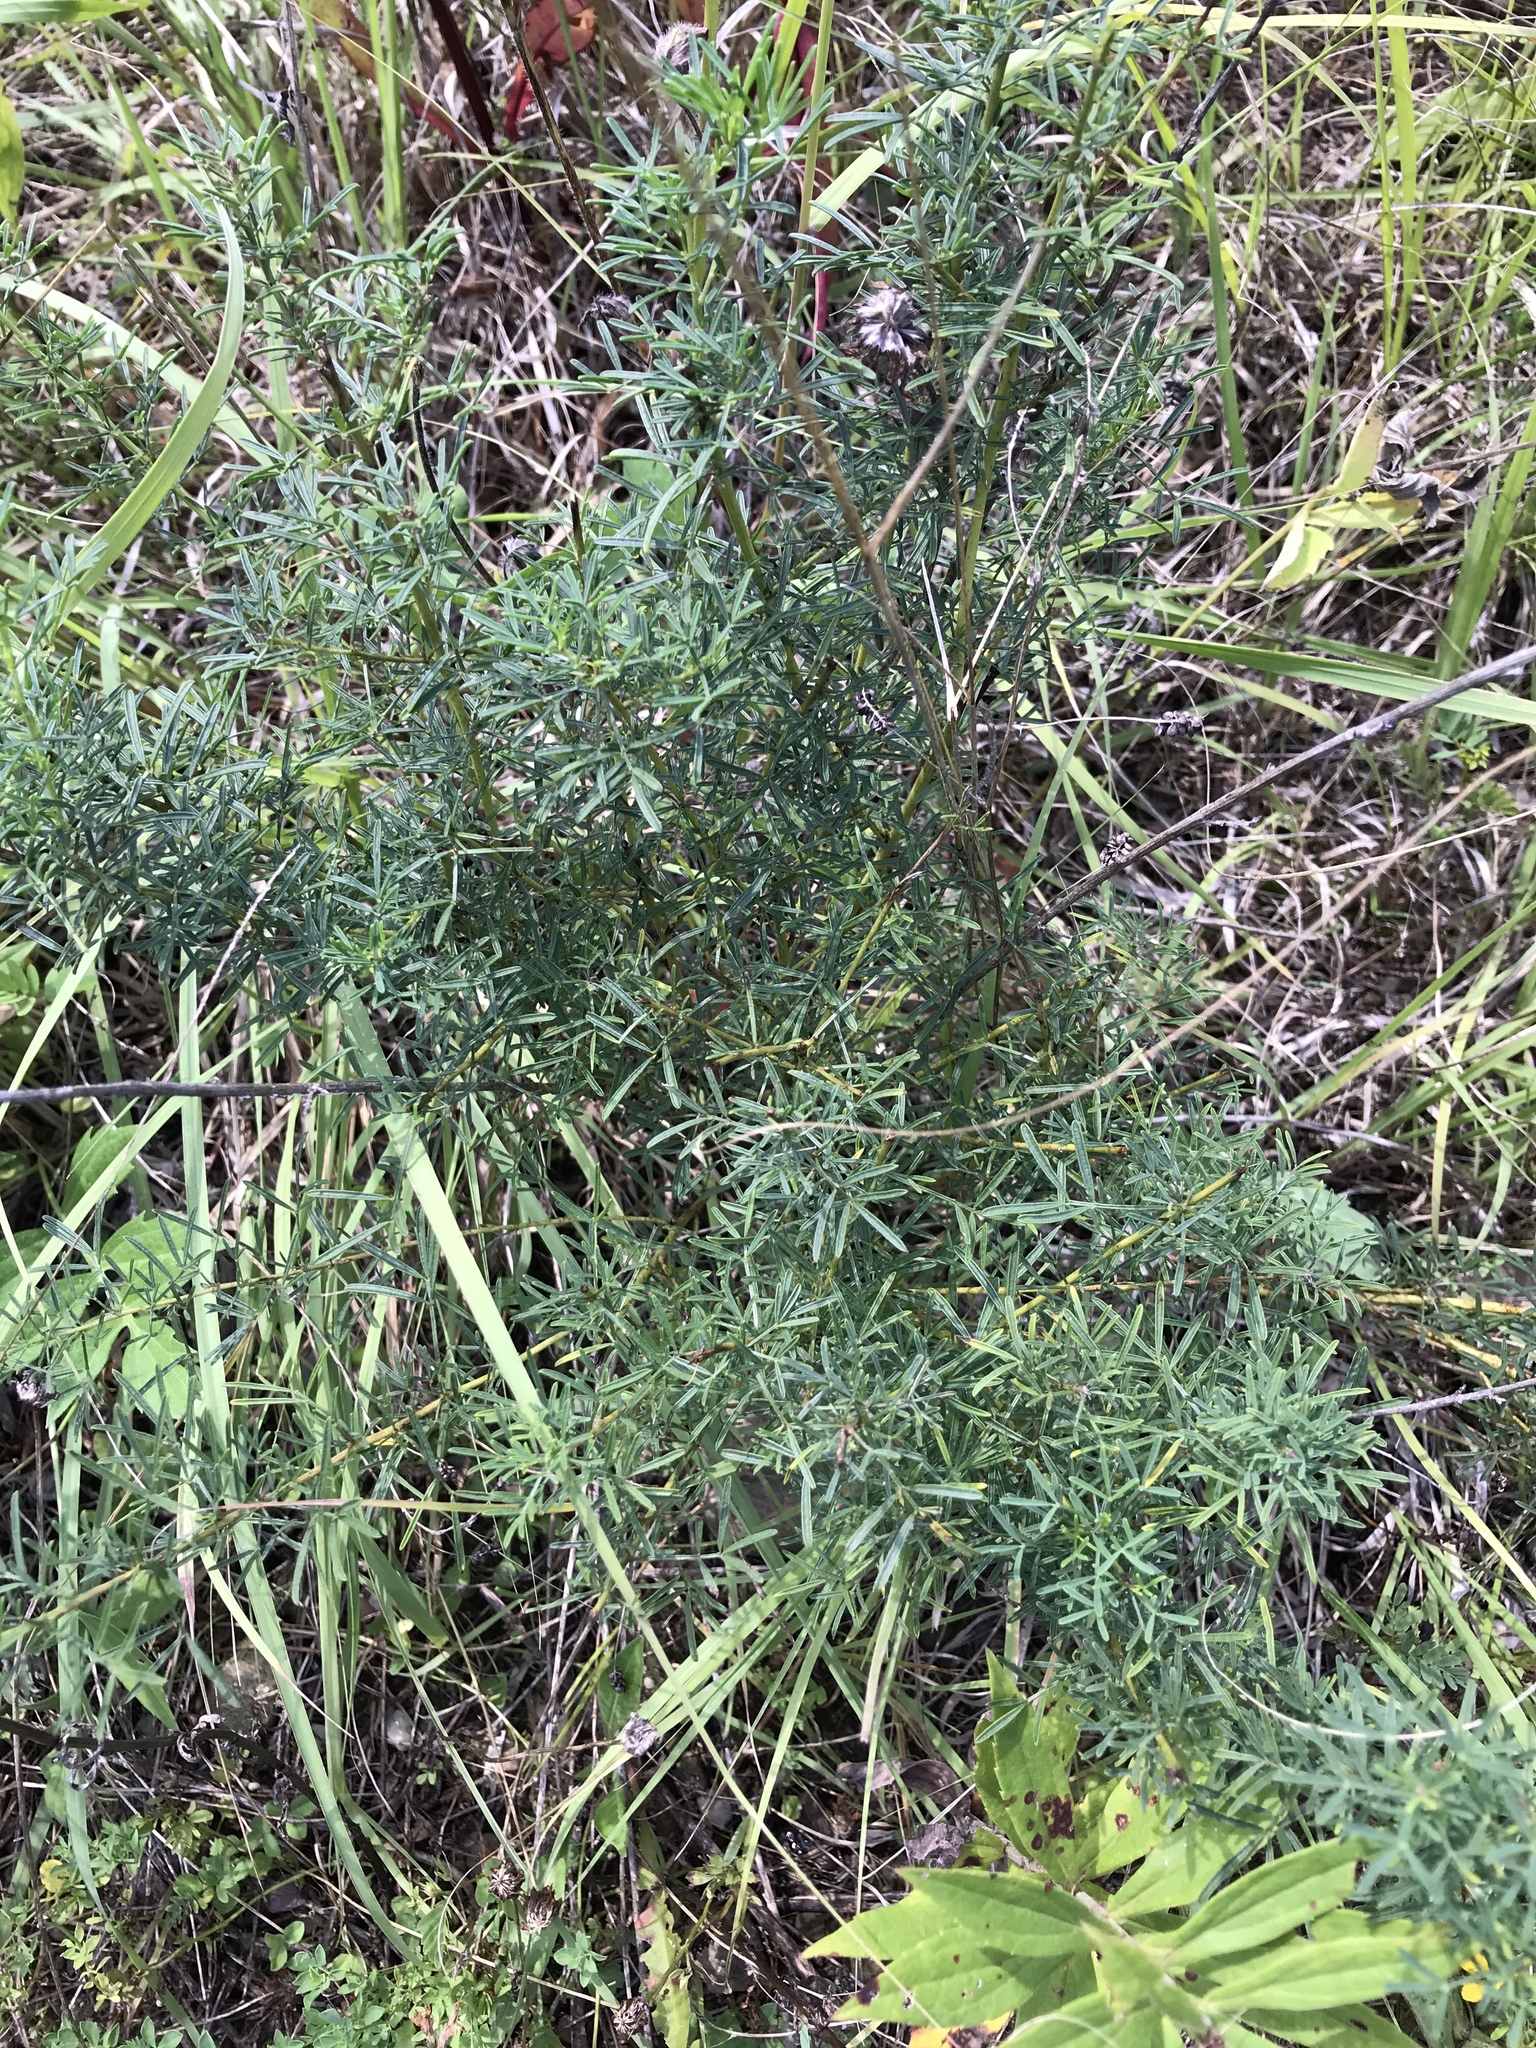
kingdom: Plantae
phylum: Tracheophyta
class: Magnoliopsida
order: Fabales
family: Fabaceae
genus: Dalea
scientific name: Dalea purpurea
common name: Purple prairie-clover
